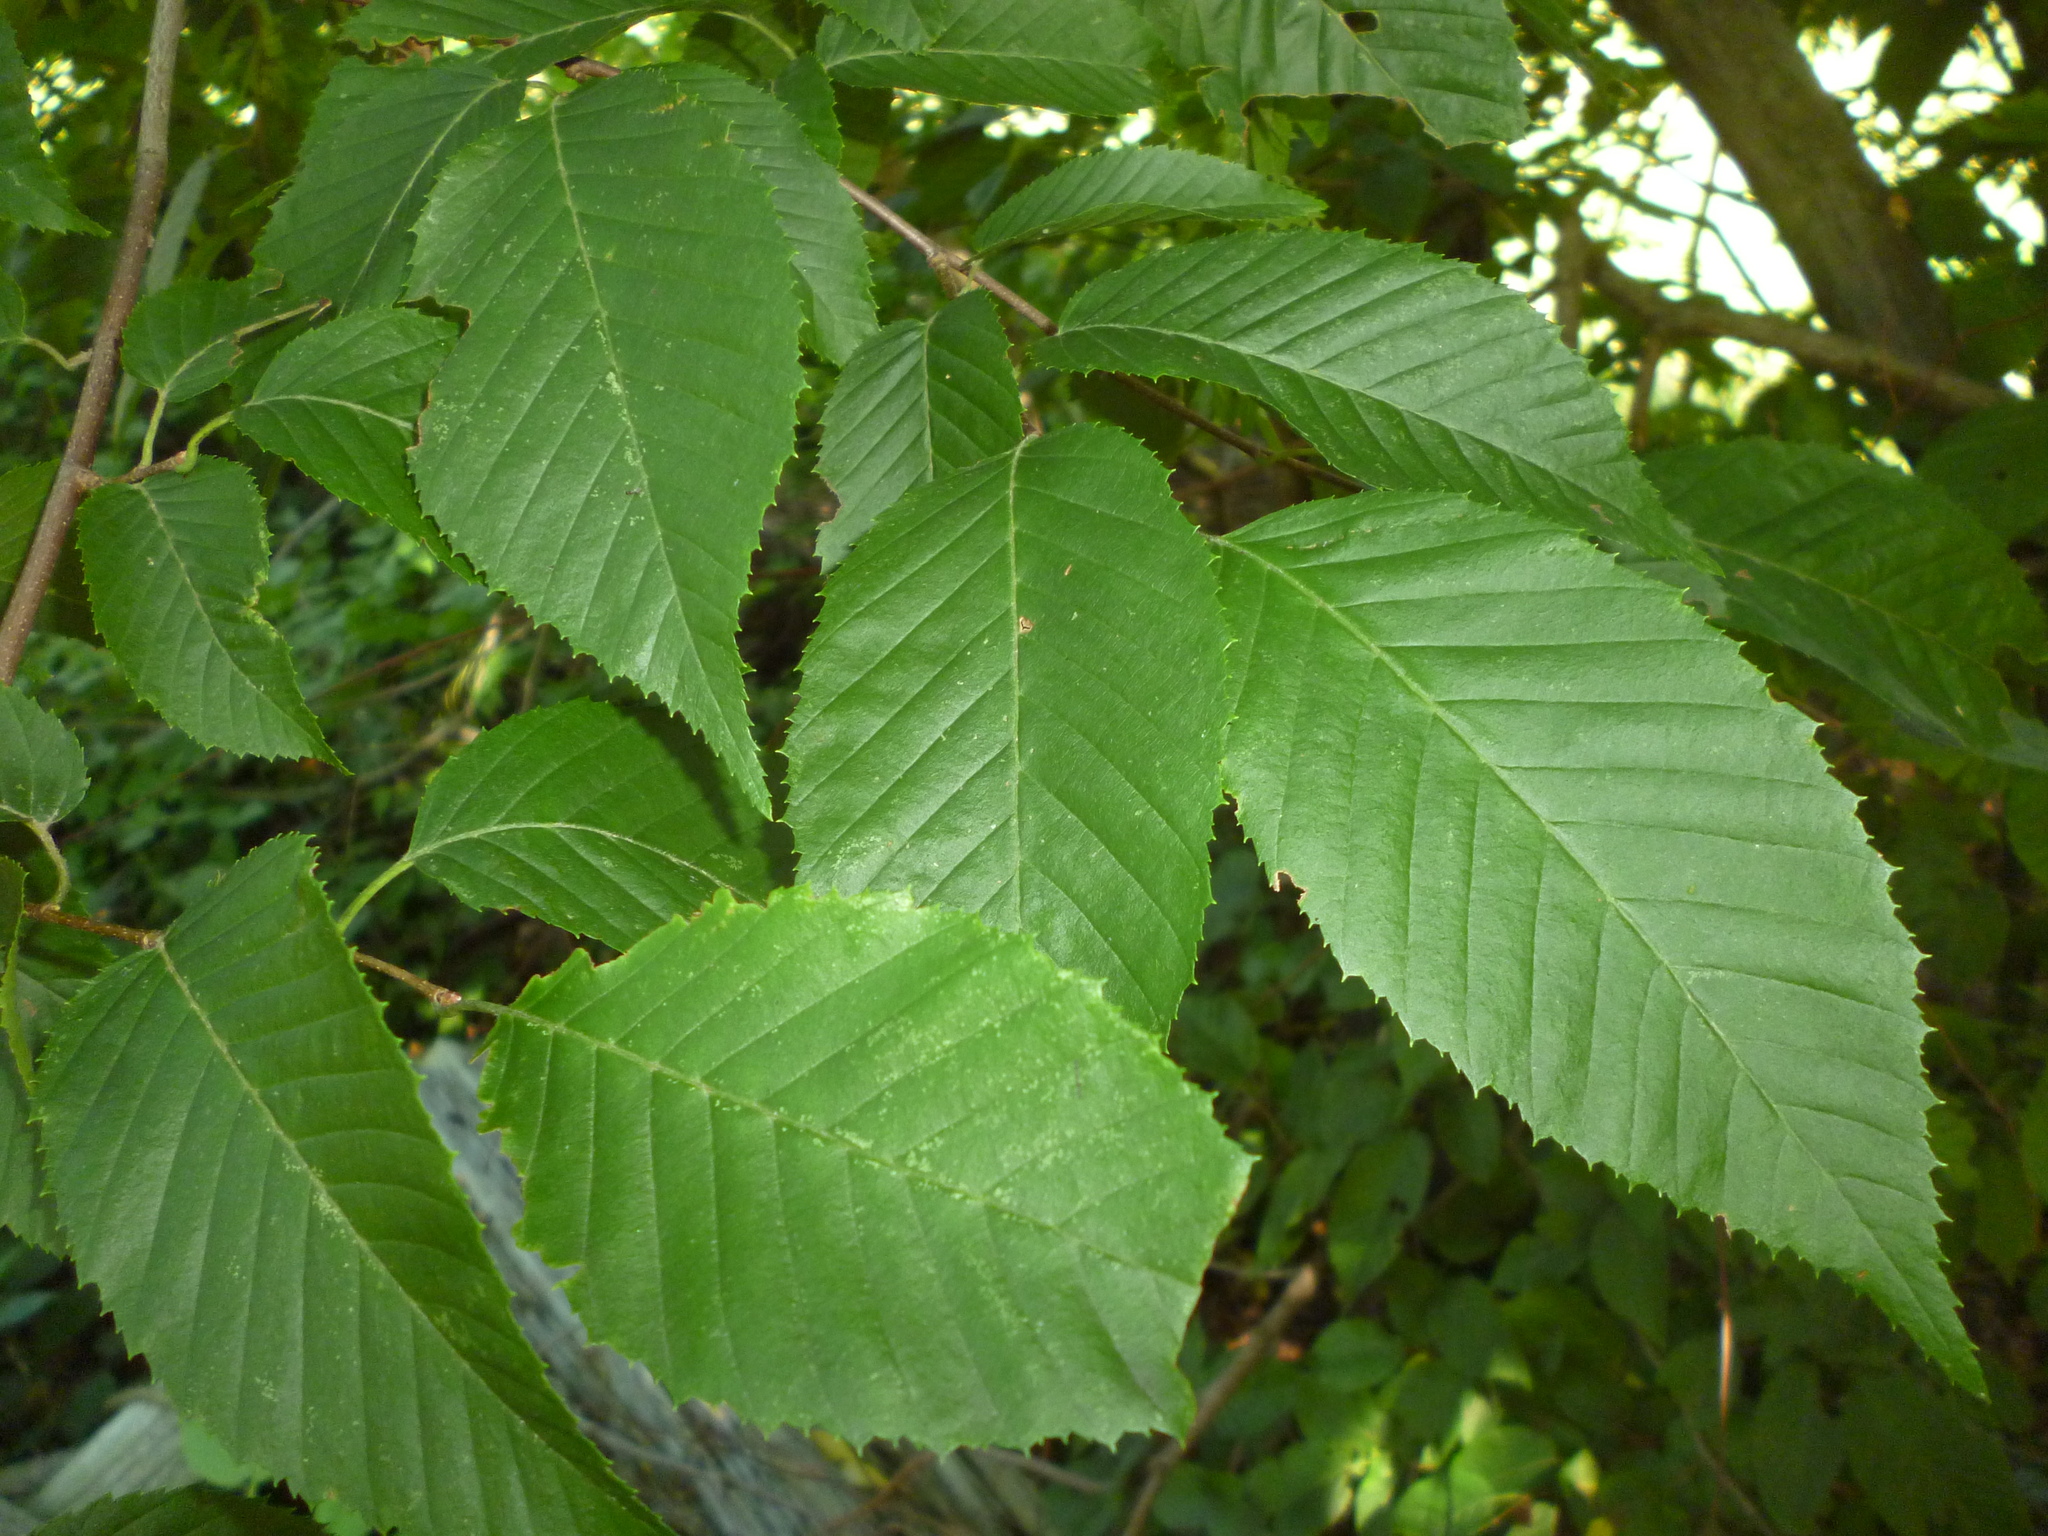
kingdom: Plantae
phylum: Tracheophyta
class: Magnoliopsida
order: Fagales
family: Betulaceae
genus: Carpinus
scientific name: Carpinus caroliniana
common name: American hornbeam
